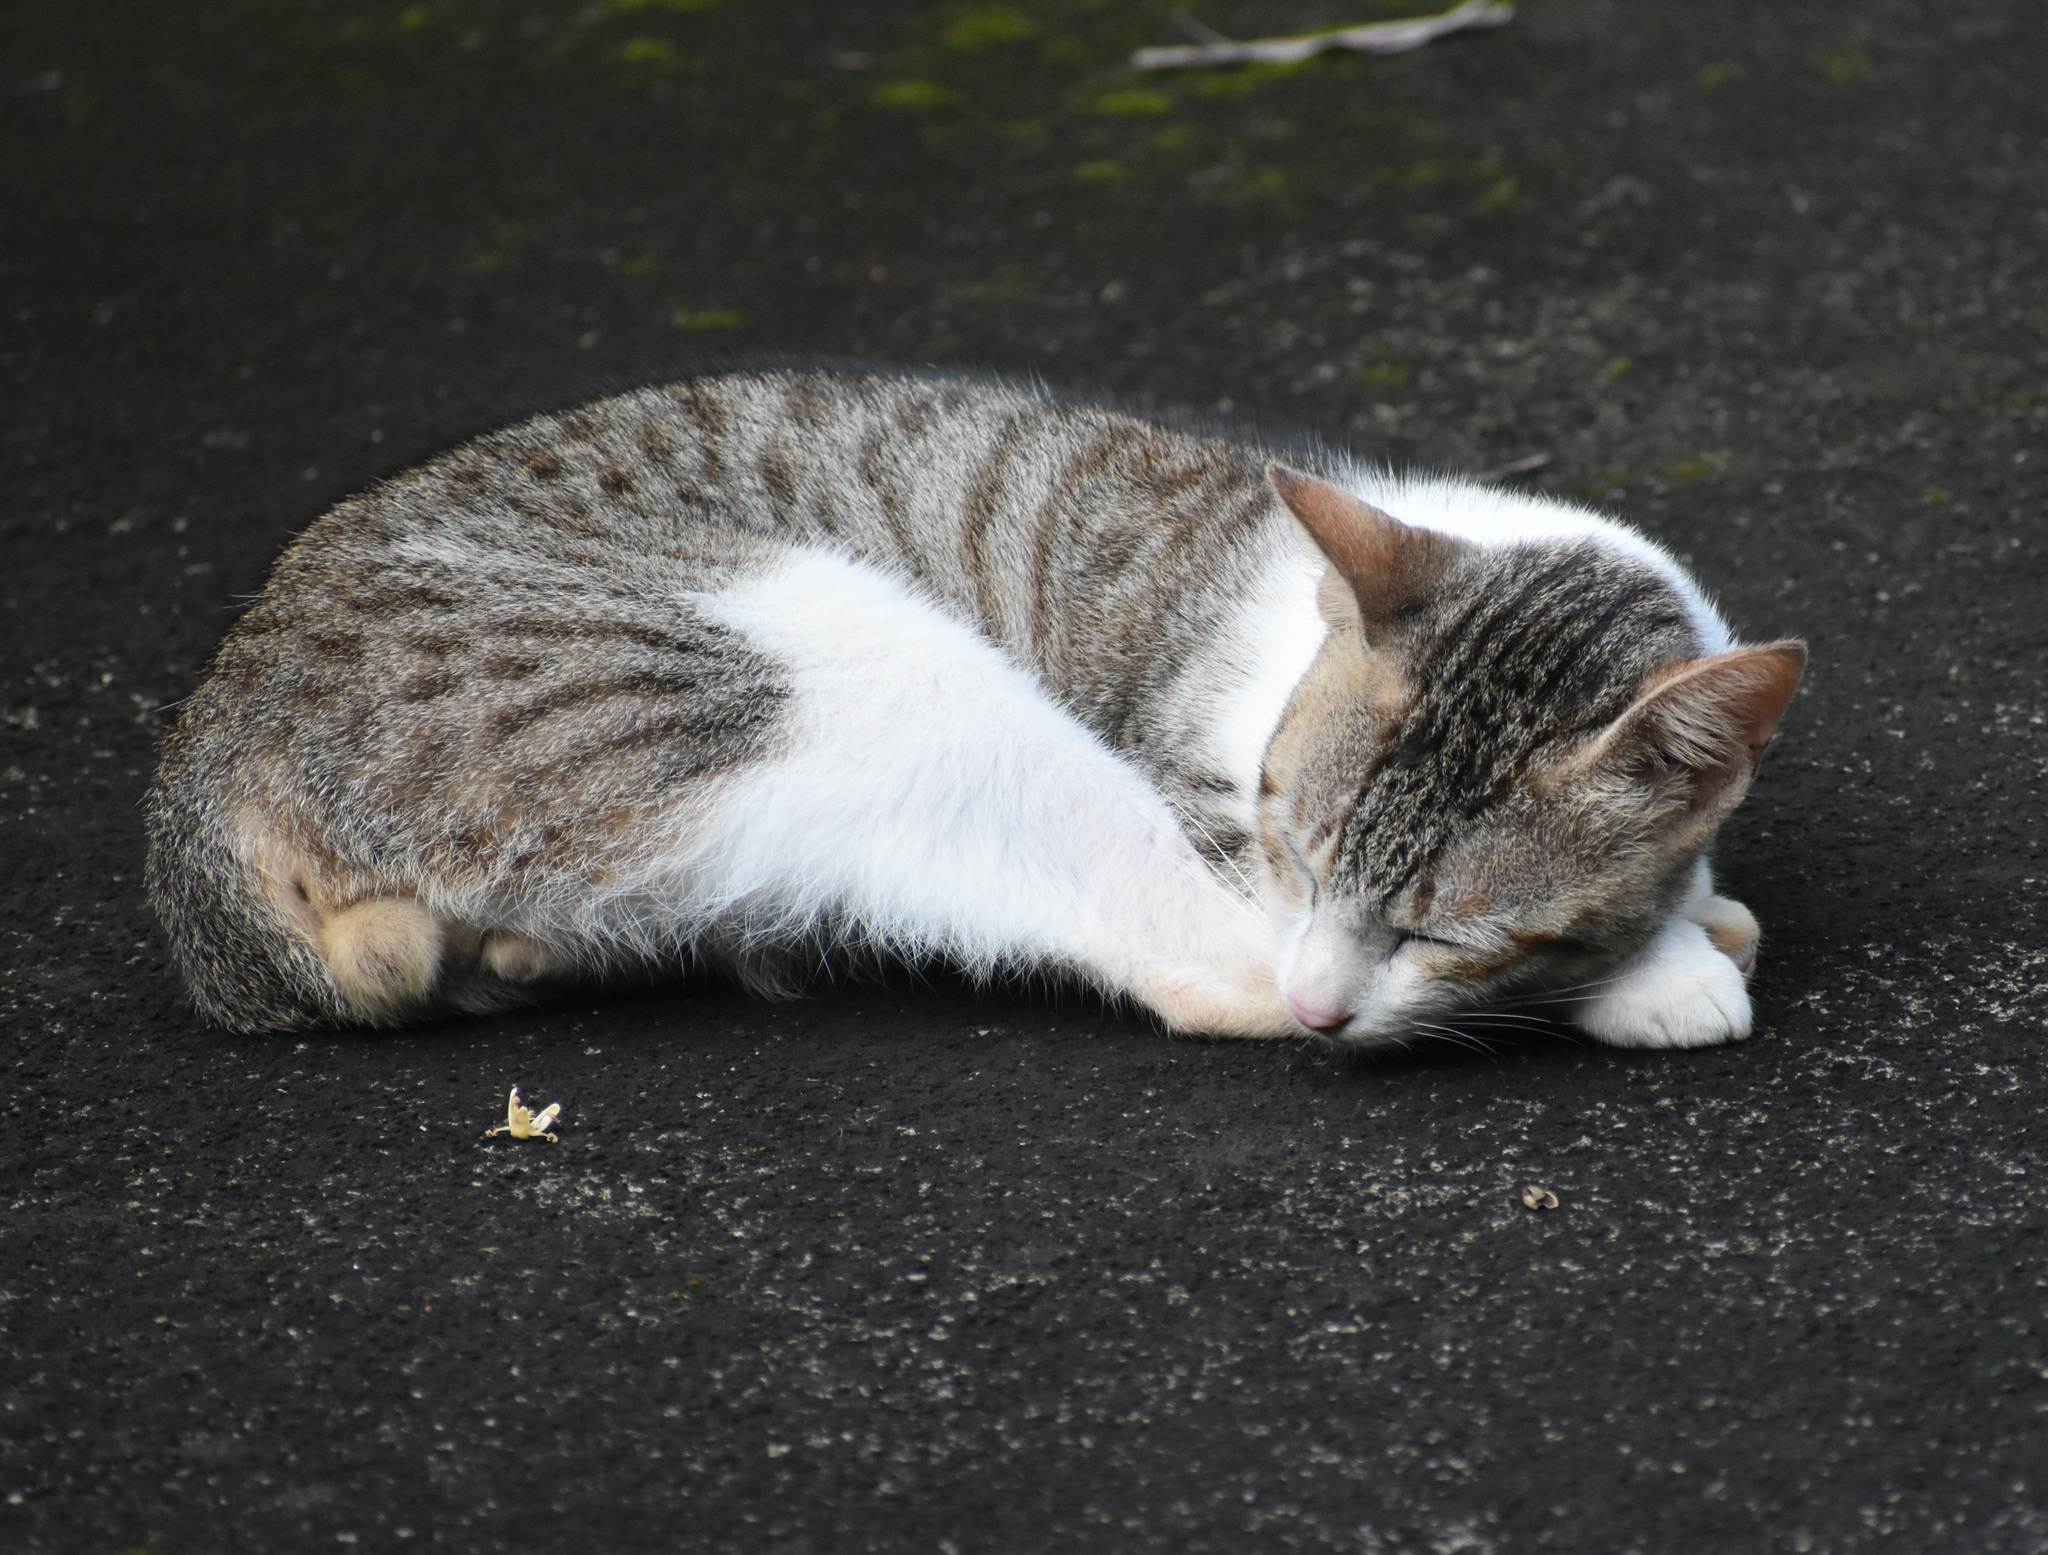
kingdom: Animalia
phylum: Chordata
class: Mammalia
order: Carnivora
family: Felidae
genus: Felis
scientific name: Felis catus
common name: Domestic cat
